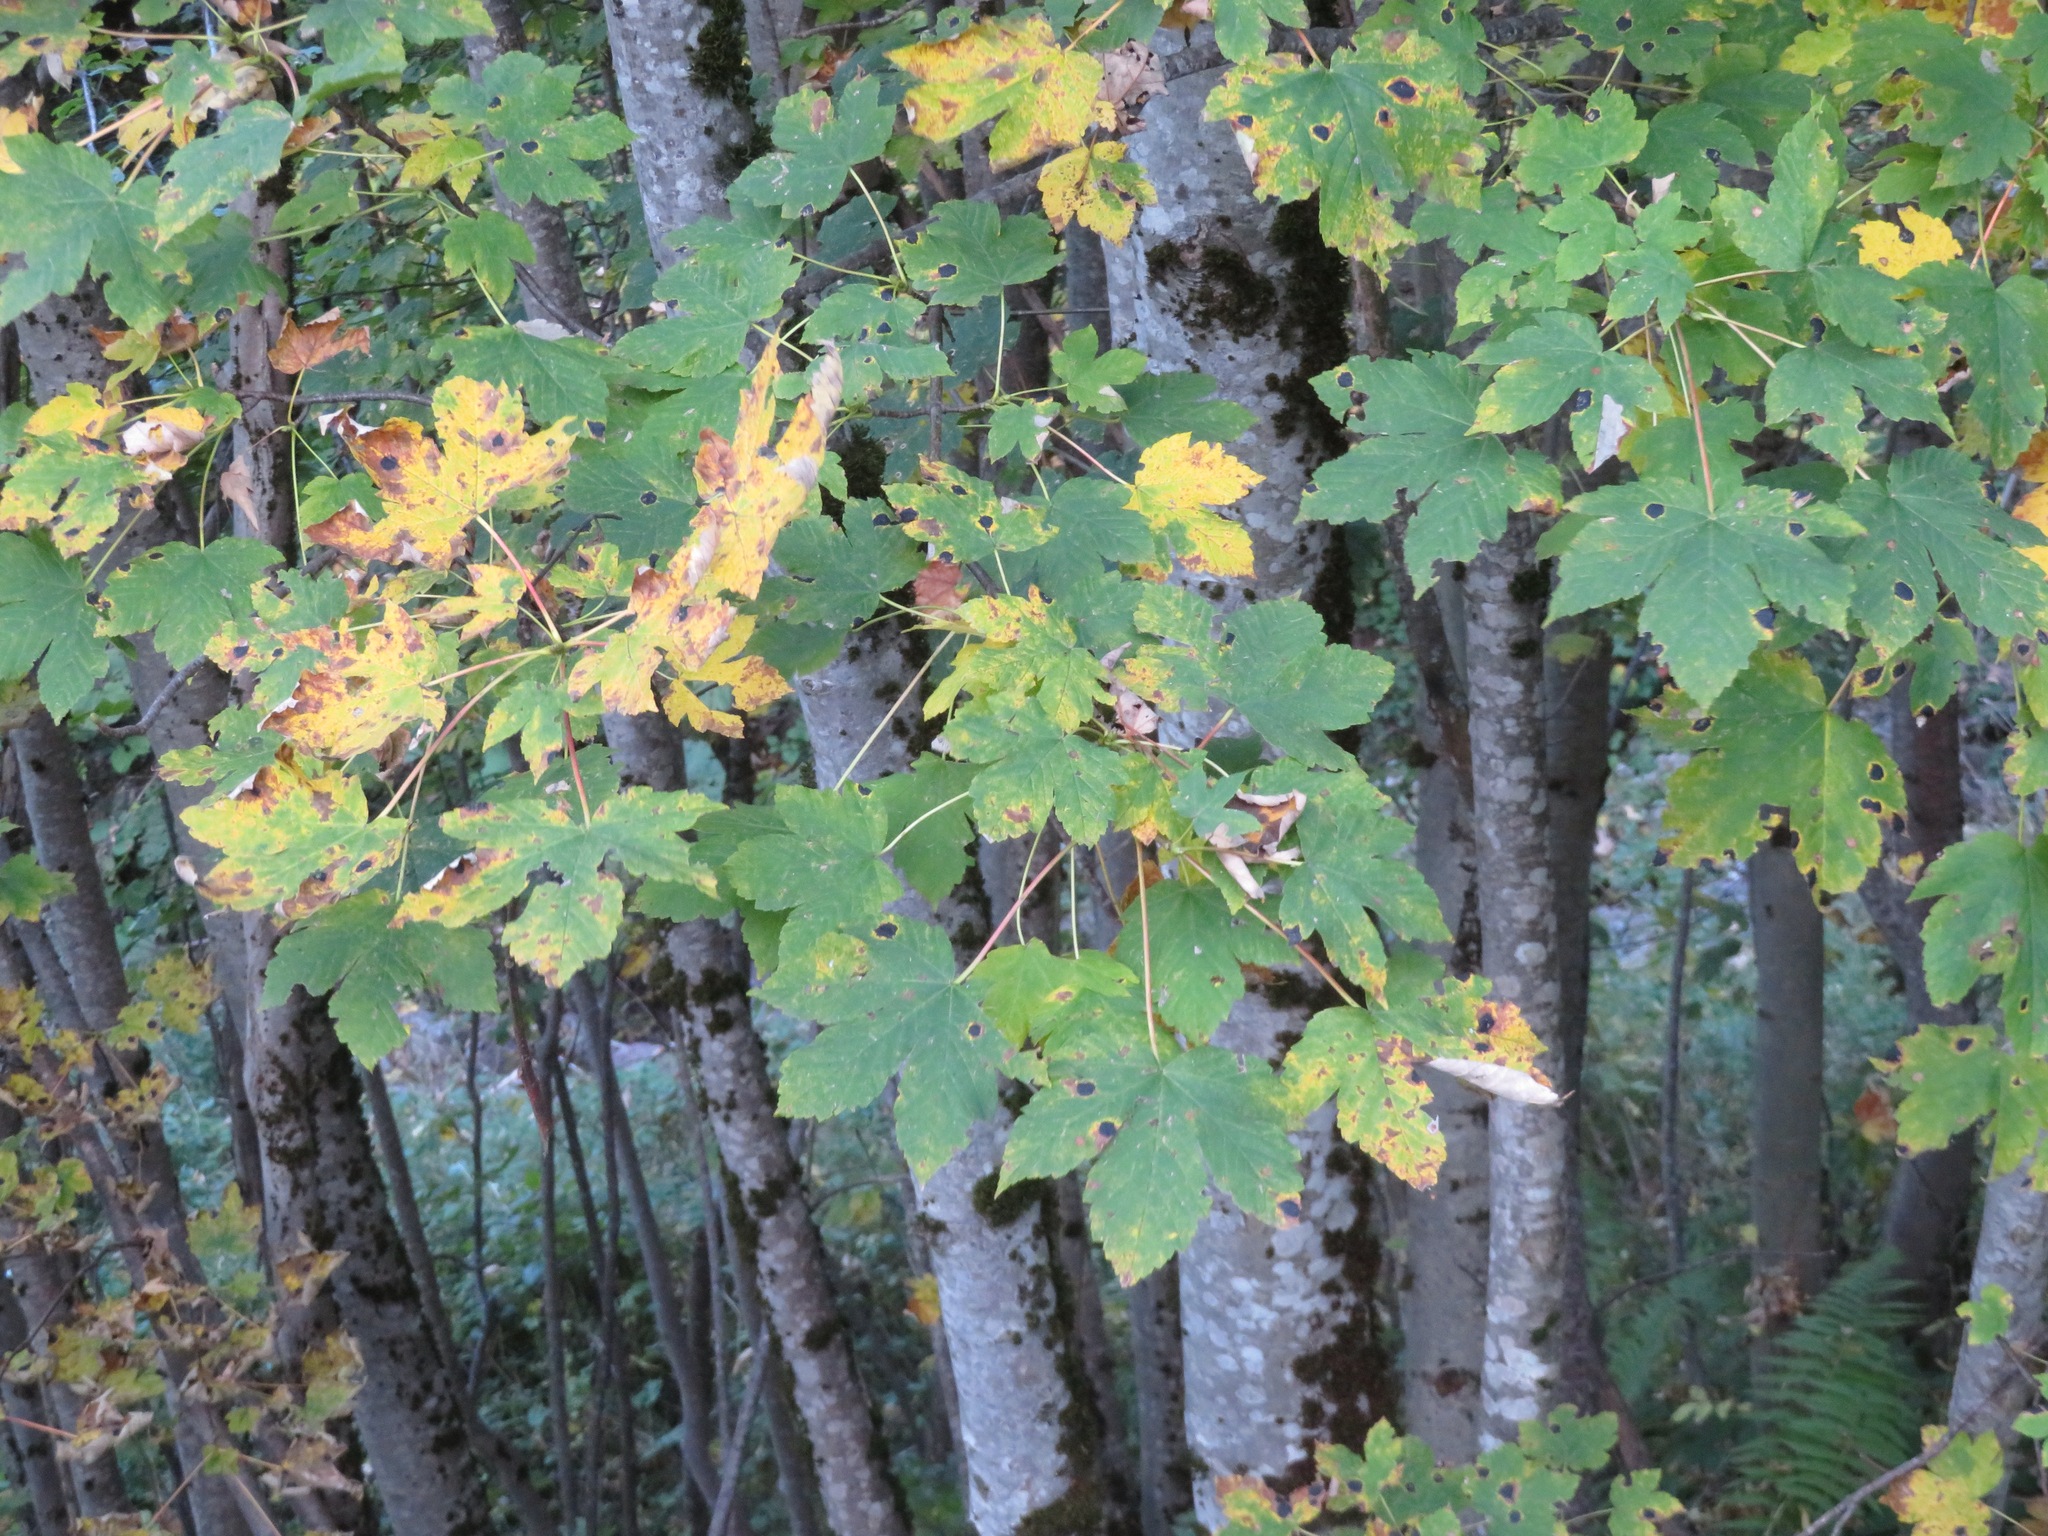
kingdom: Plantae
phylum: Tracheophyta
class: Magnoliopsida
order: Sapindales
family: Sapindaceae
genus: Acer
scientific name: Acer pseudoplatanus
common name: Sycamore
